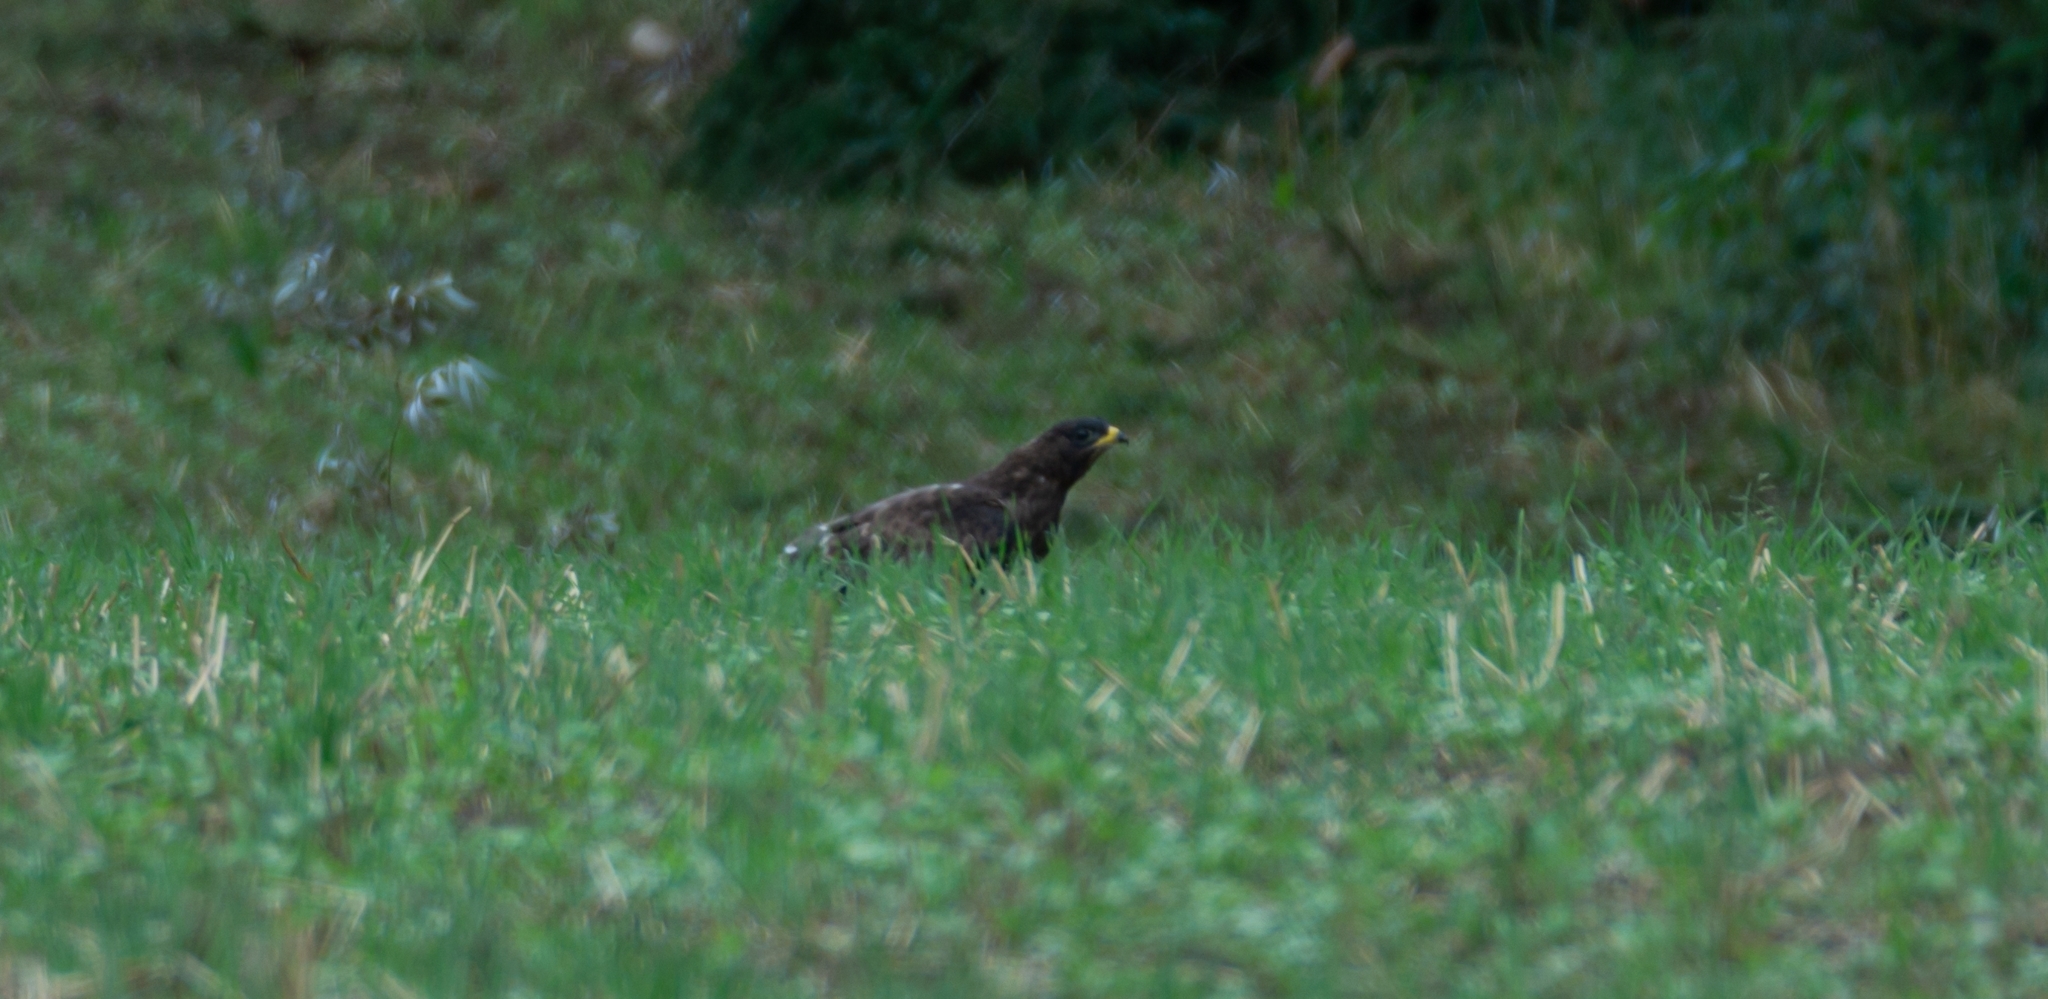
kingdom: Animalia
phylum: Chordata
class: Aves
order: Accipitriformes
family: Accipitridae
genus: Pernis
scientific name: Pernis apivorus
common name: European honey buzzard
